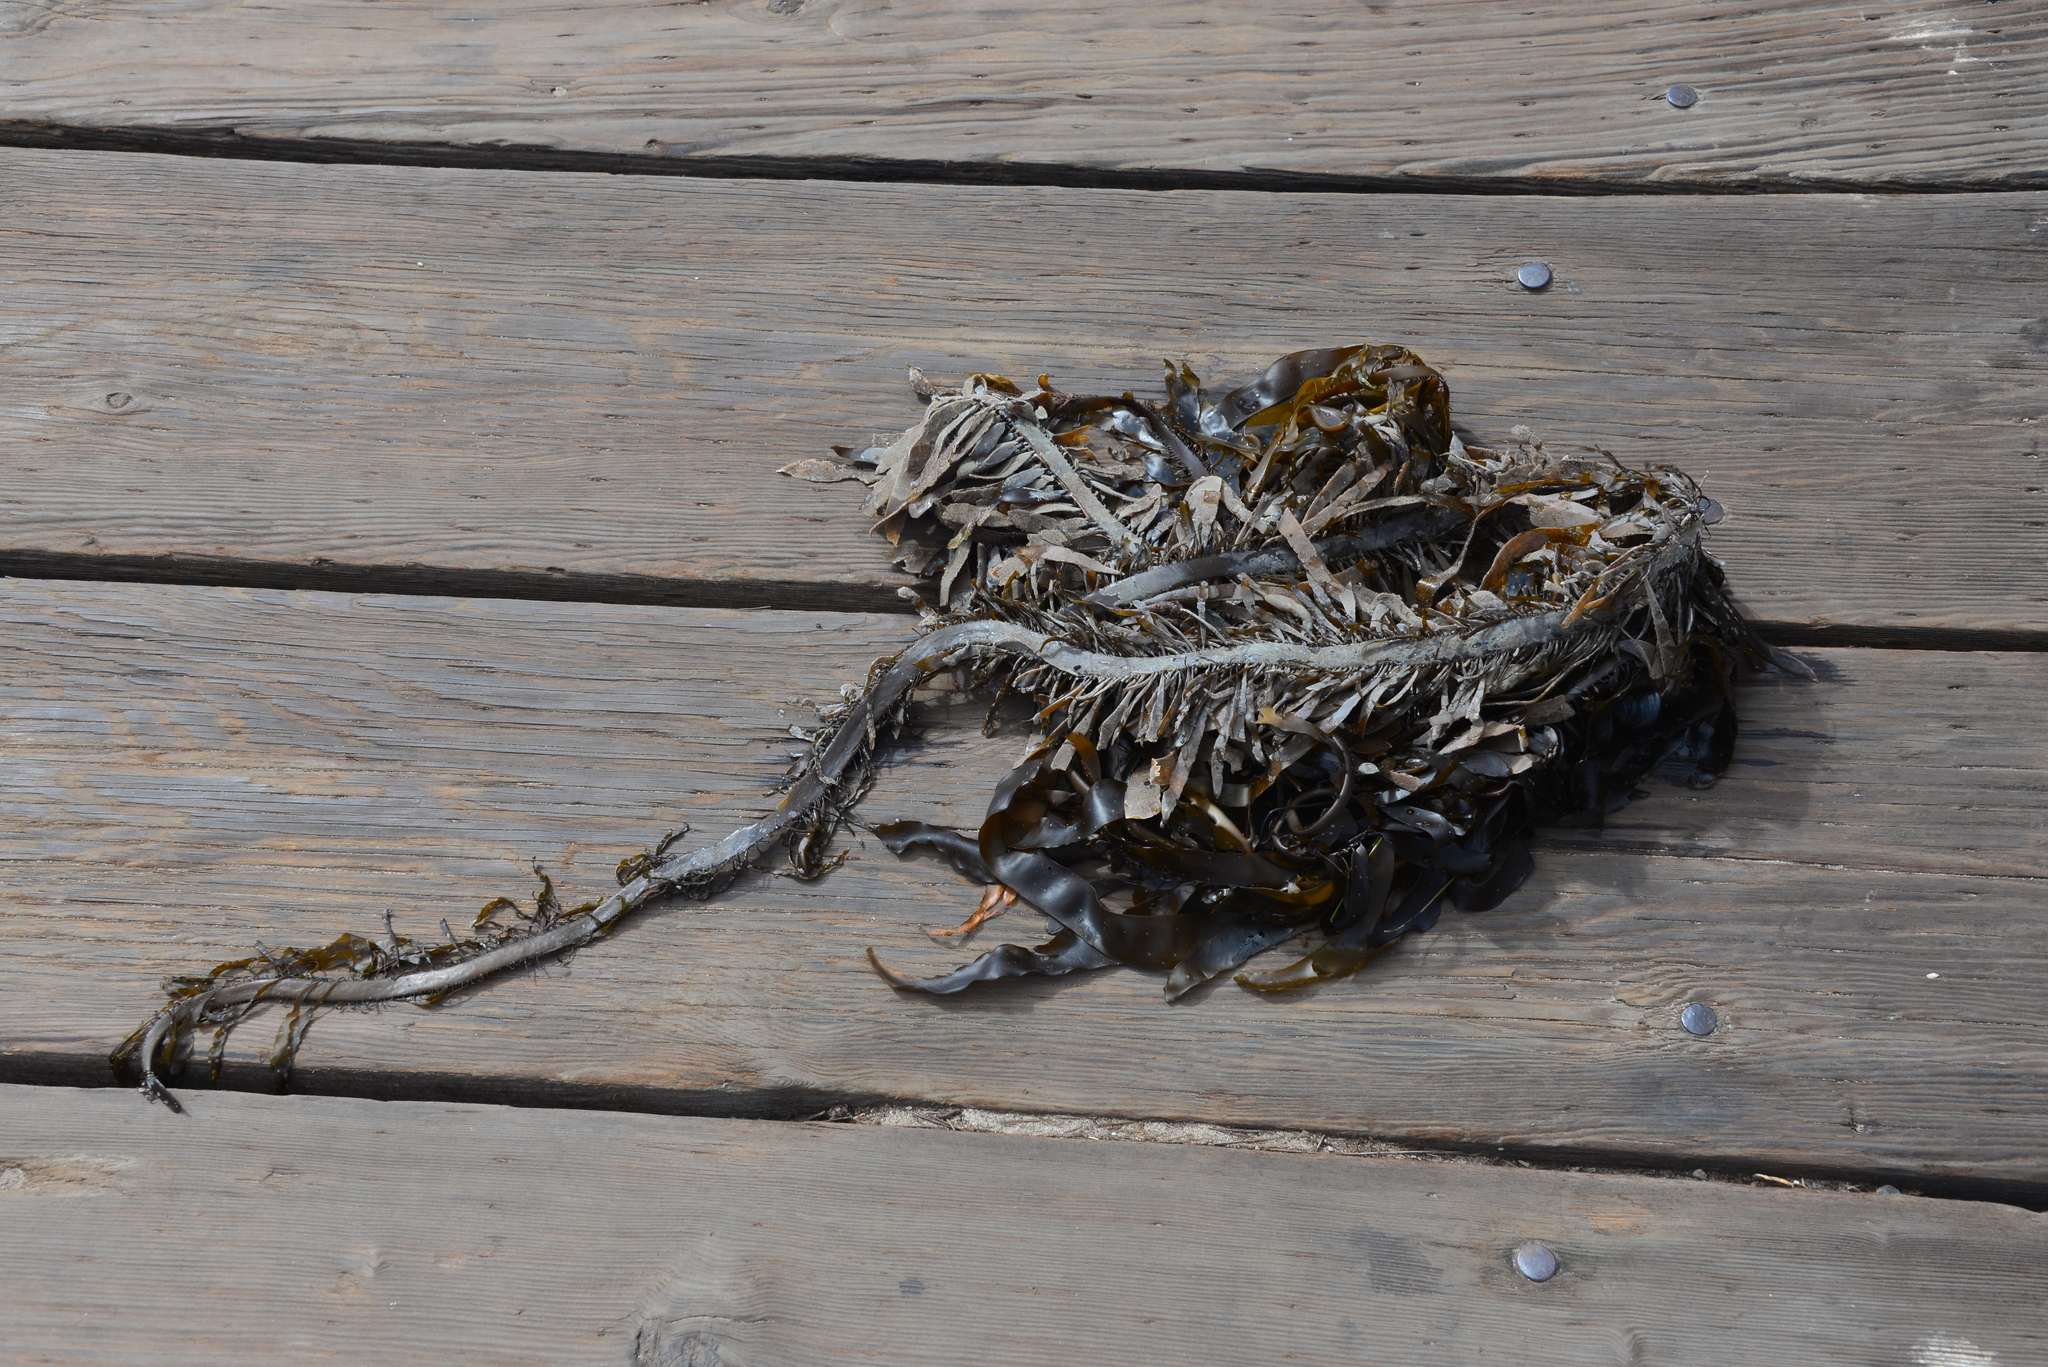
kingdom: Chromista
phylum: Ochrophyta
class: Phaeophyceae
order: Laminariales
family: Lessoniaceae
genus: Egregia
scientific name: Egregia menziesii
